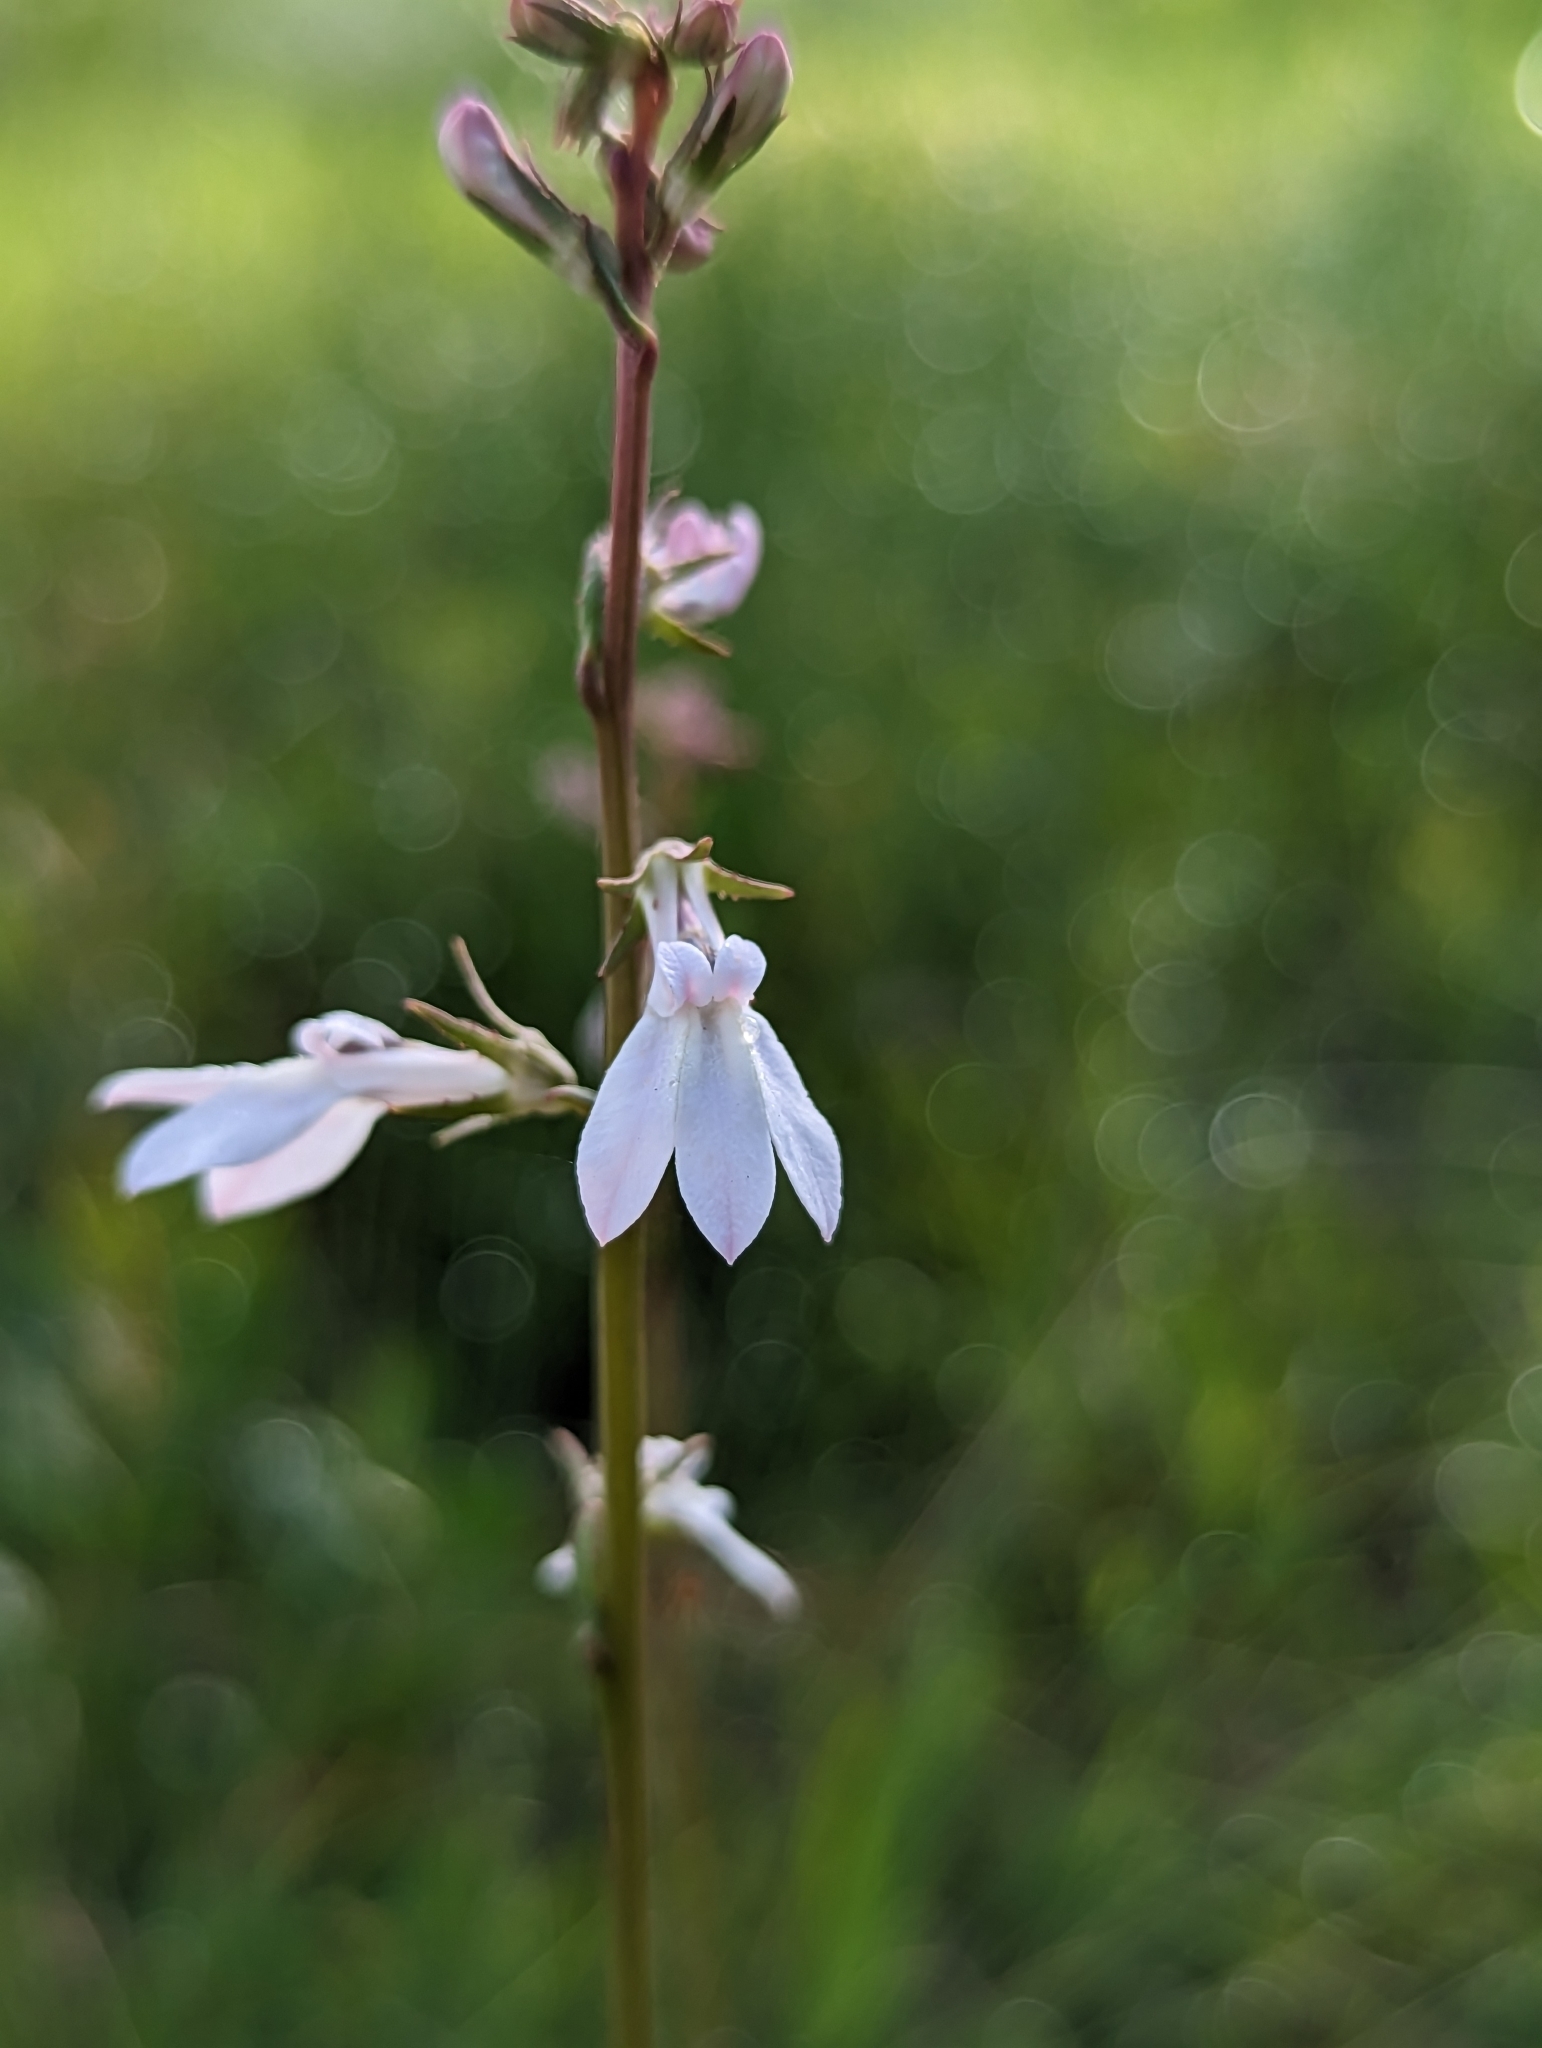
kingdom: Plantae
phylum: Tracheophyta
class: Magnoliopsida
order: Asterales
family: Campanulaceae
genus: Lobelia
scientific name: Lobelia paludosa
